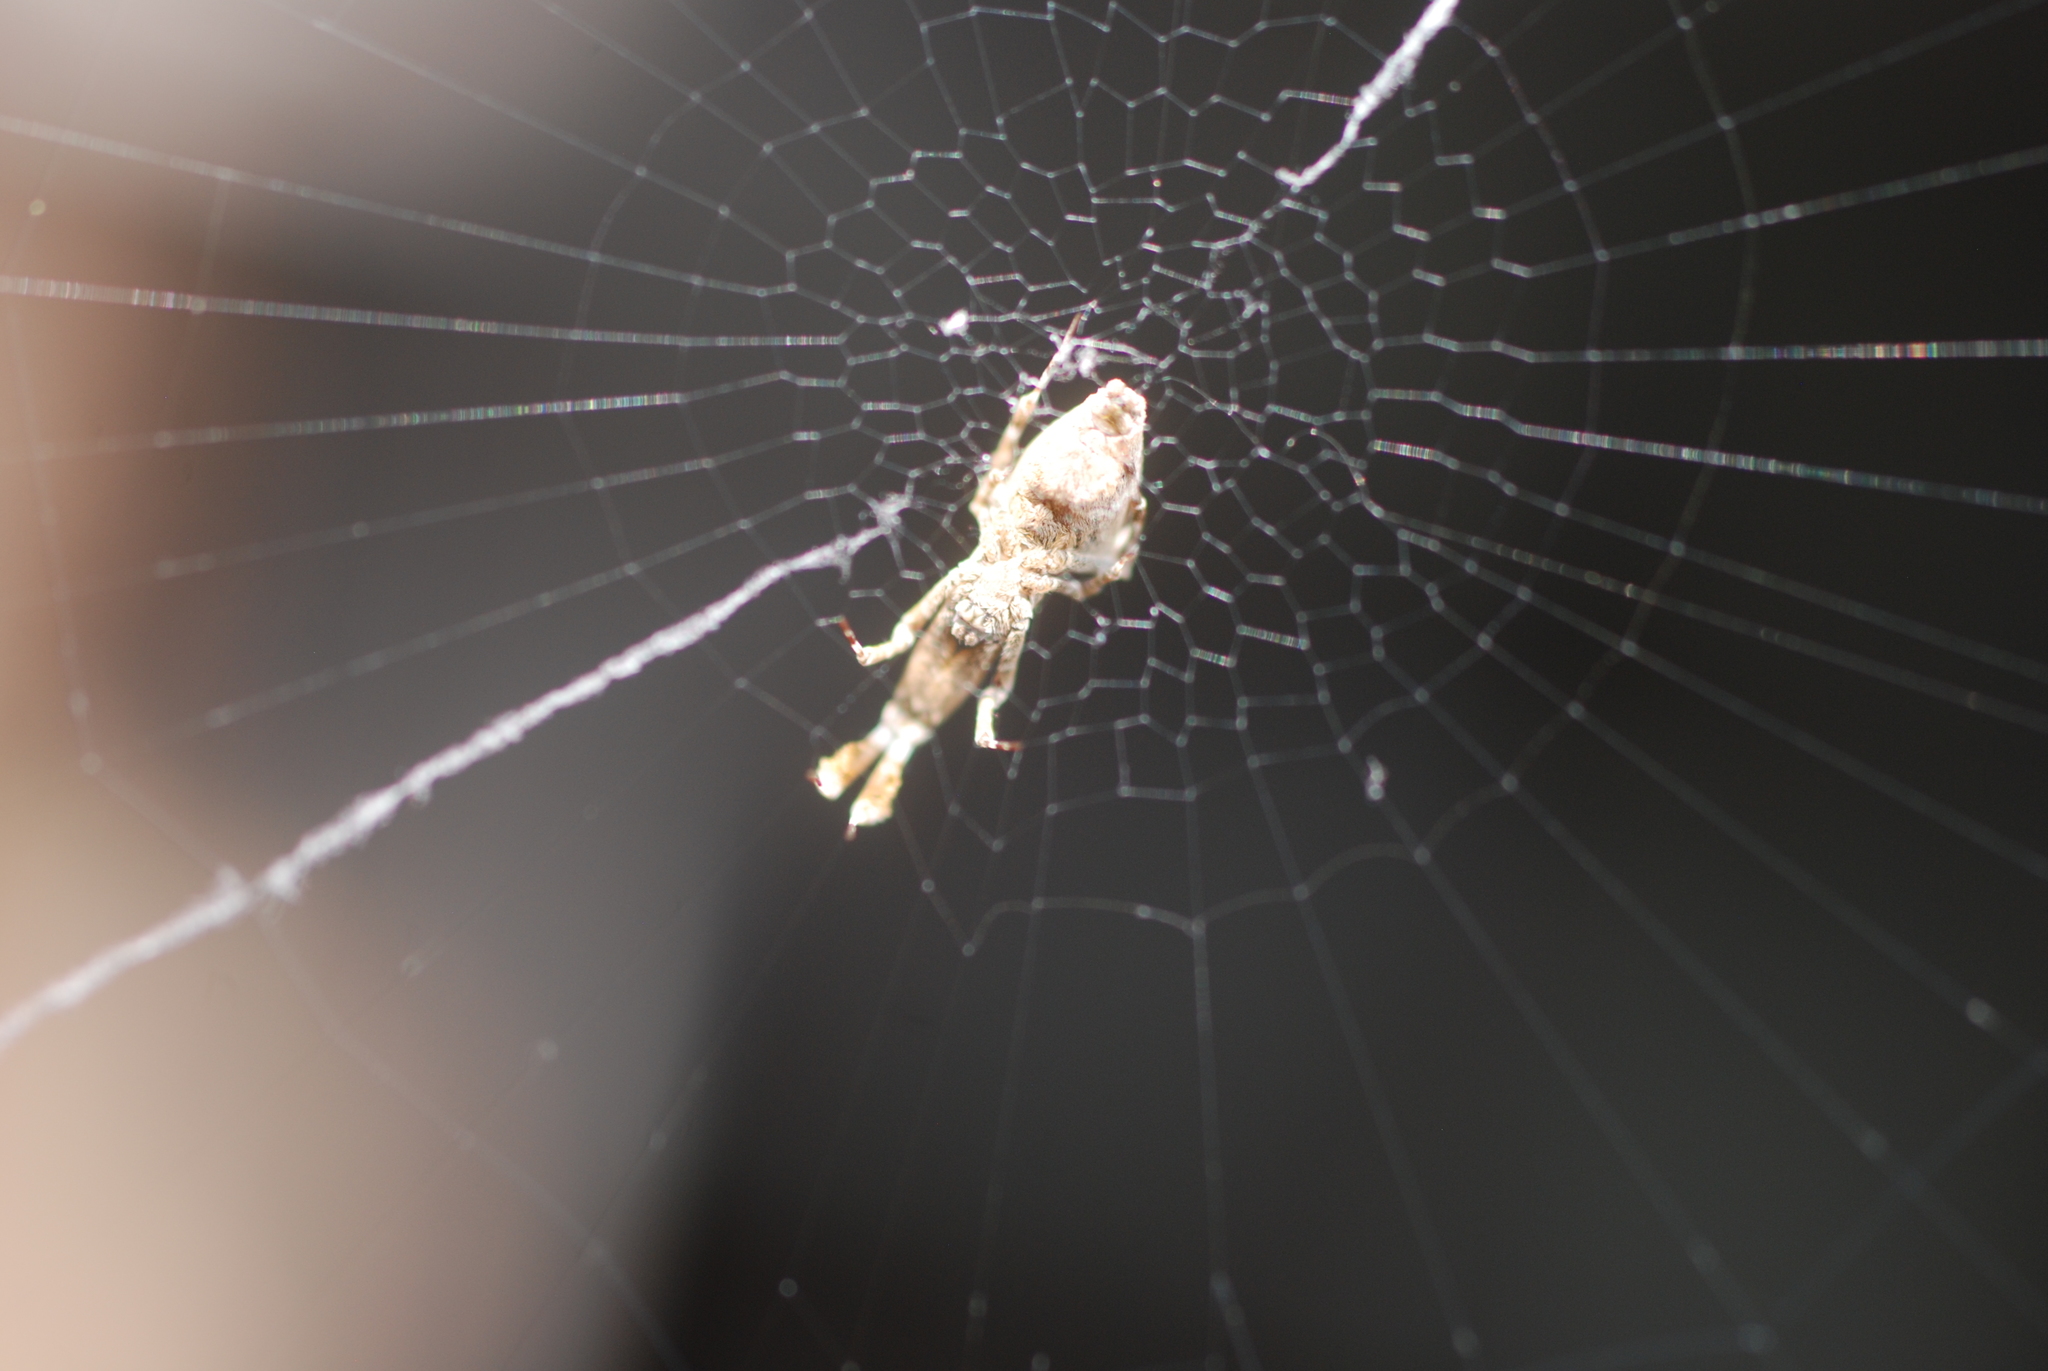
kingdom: Animalia
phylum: Arthropoda
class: Arachnida
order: Araneae
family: Uloboridae
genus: Uloborus
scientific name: Uloborus plumipes
